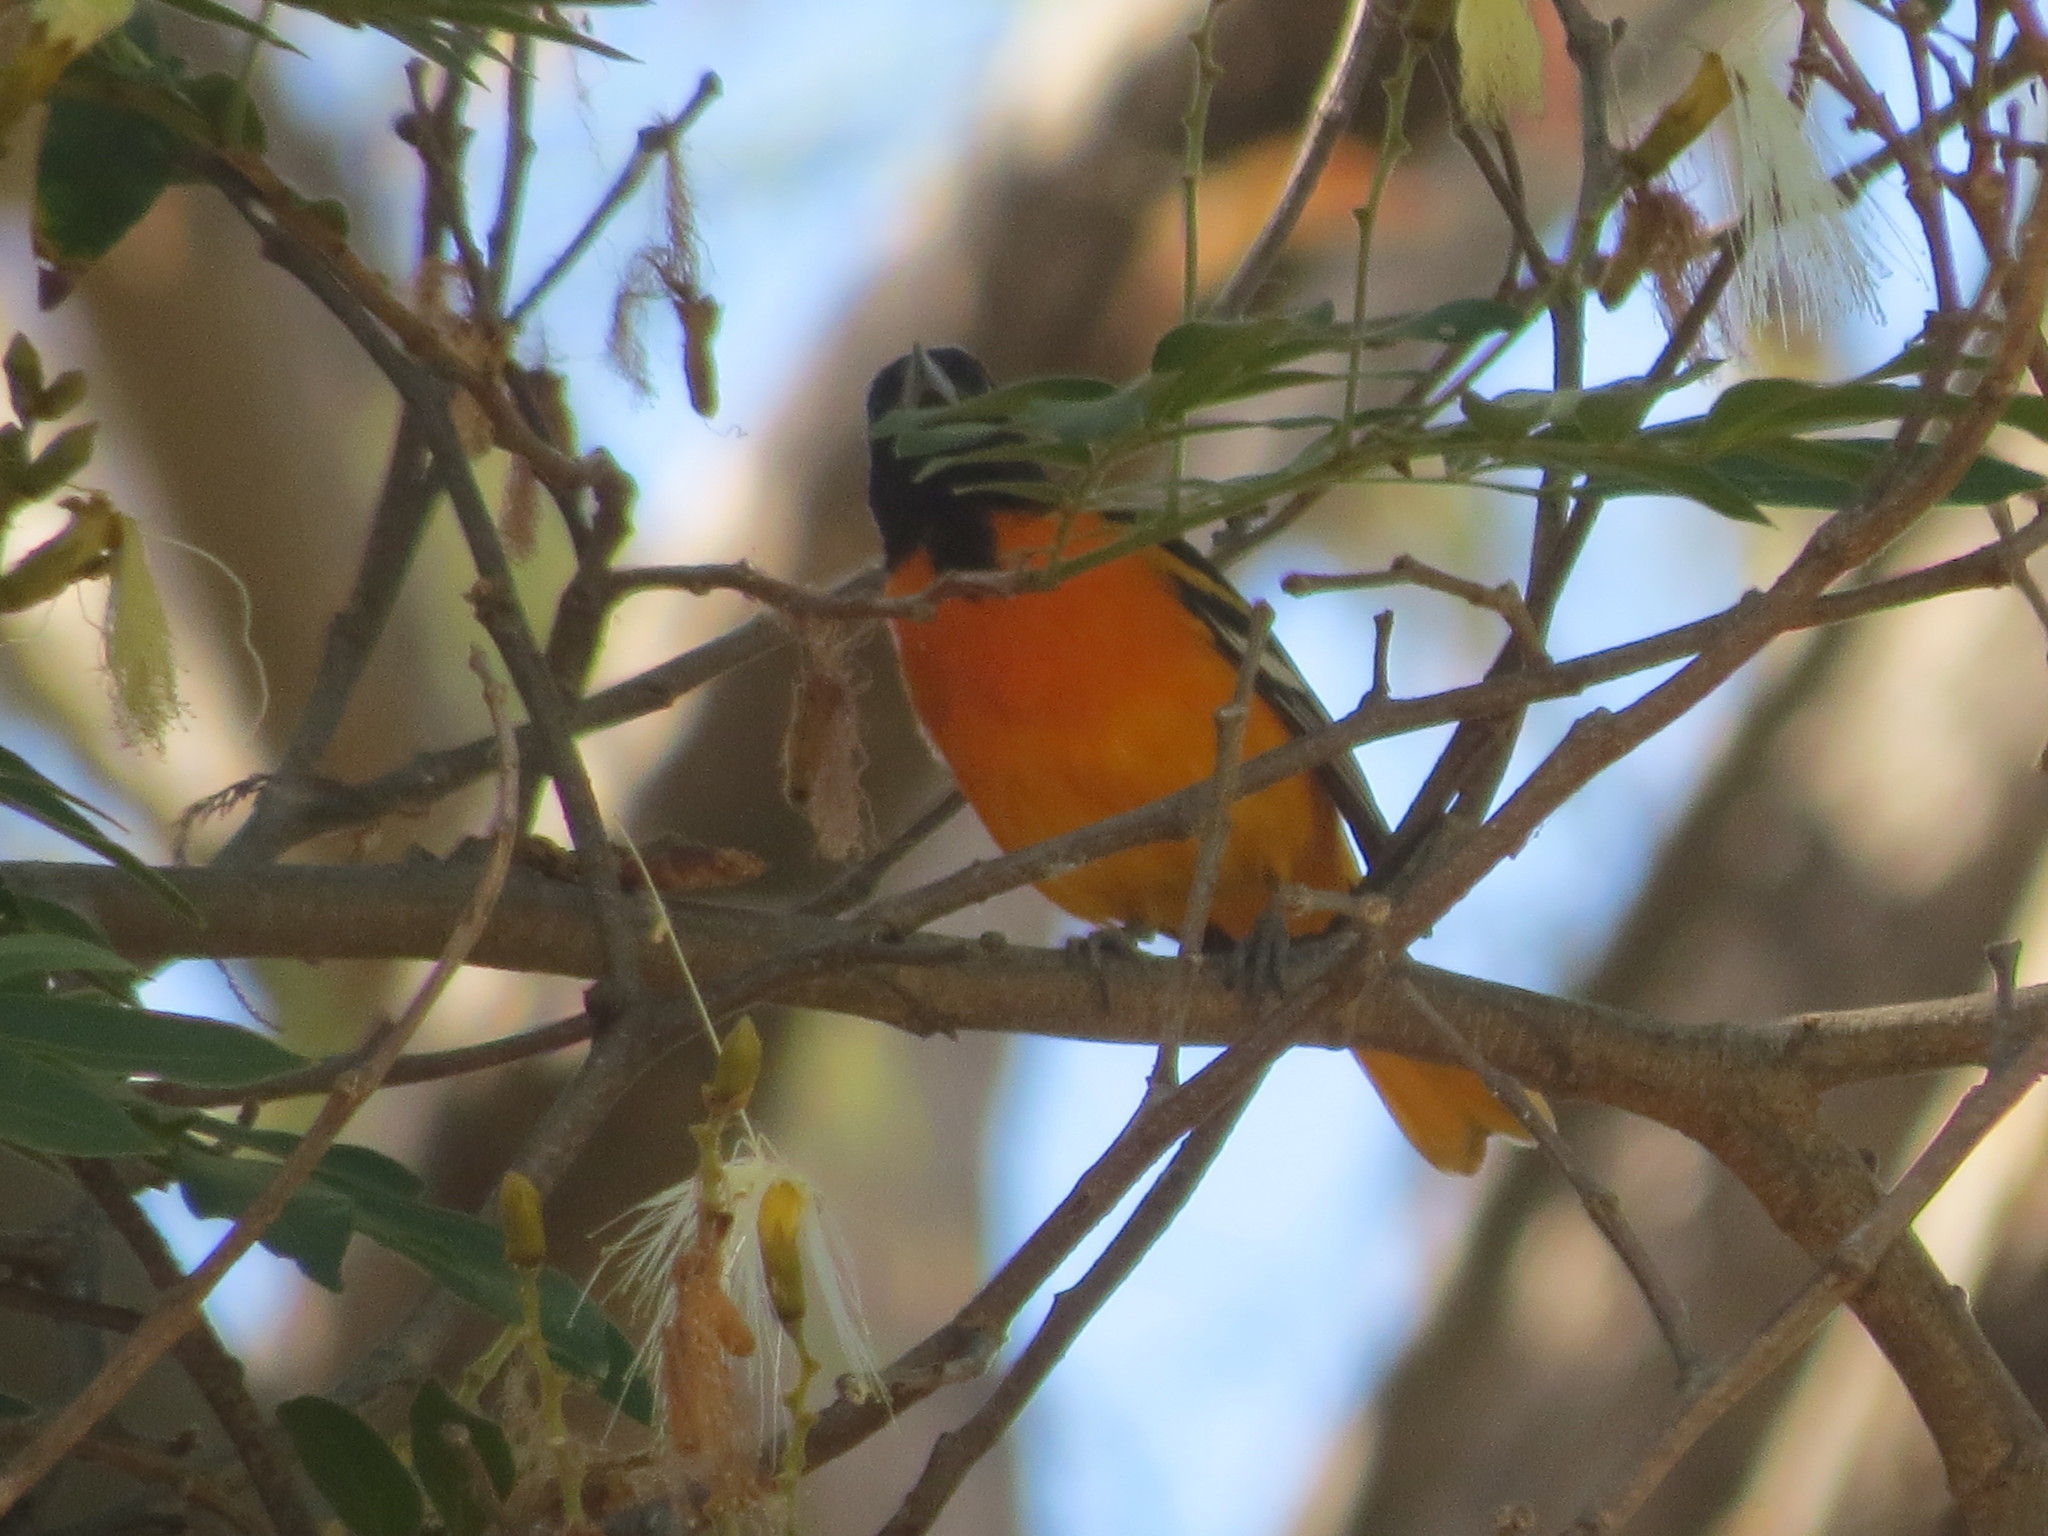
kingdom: Animalia
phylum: Chordata
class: Aves
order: Passeriformes
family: Icteridae
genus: Icterus
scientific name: Icterus galbula
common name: Baltimore oriole
